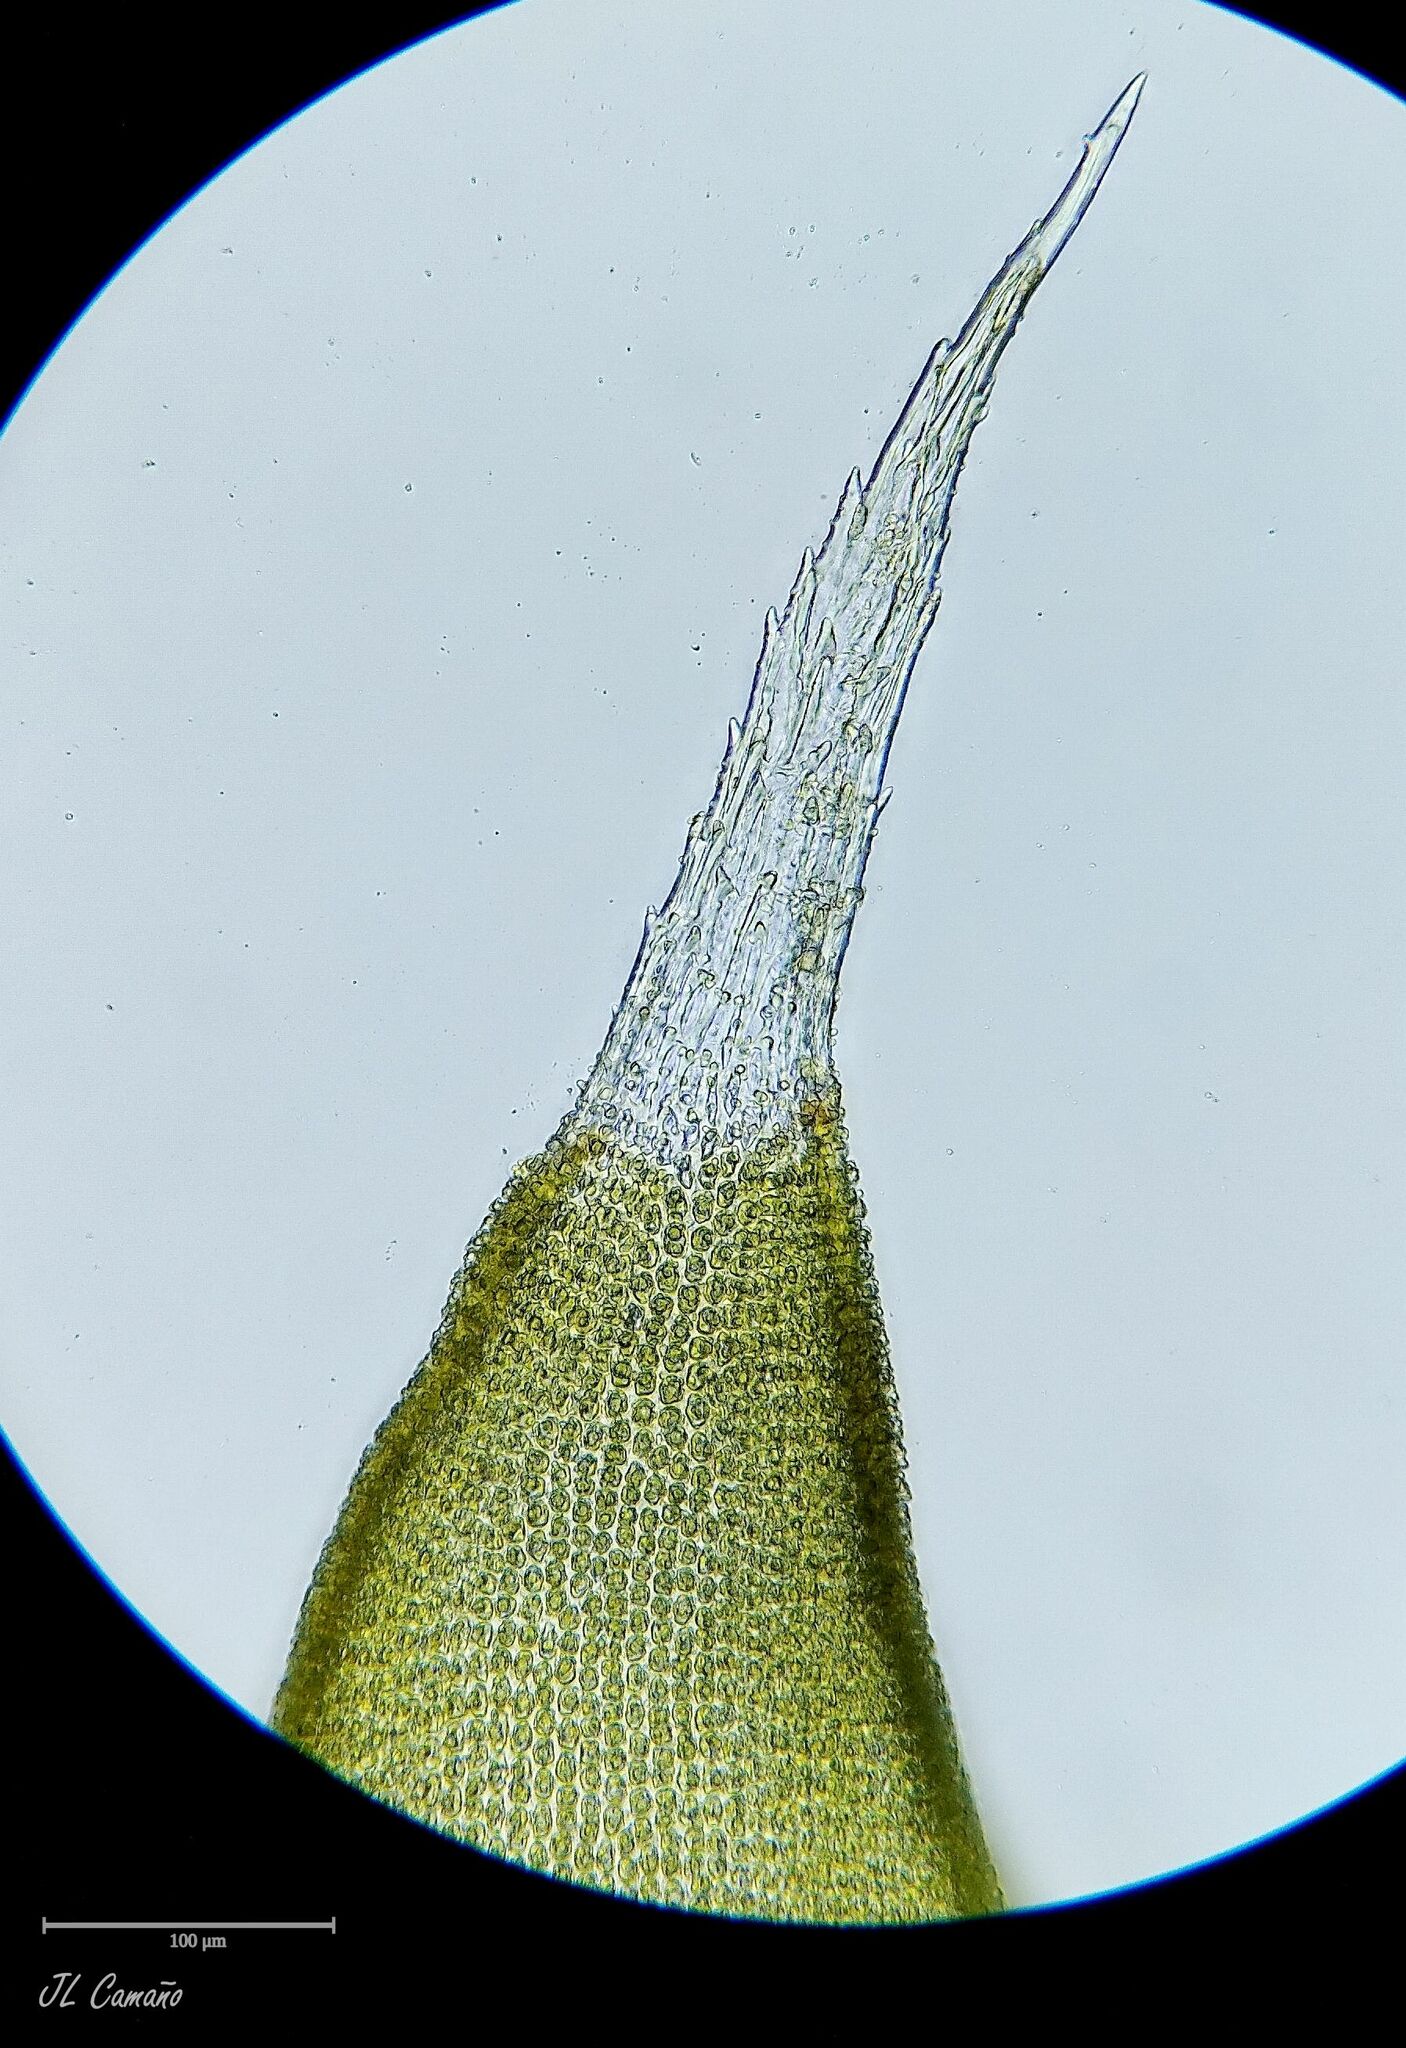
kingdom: Plantae
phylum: Bryophyta
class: Bryopsida
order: Hedwigiales
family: Hedwigiaceae
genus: Hedwigia
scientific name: Hedwigia stellata
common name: Starry hoar-moss
